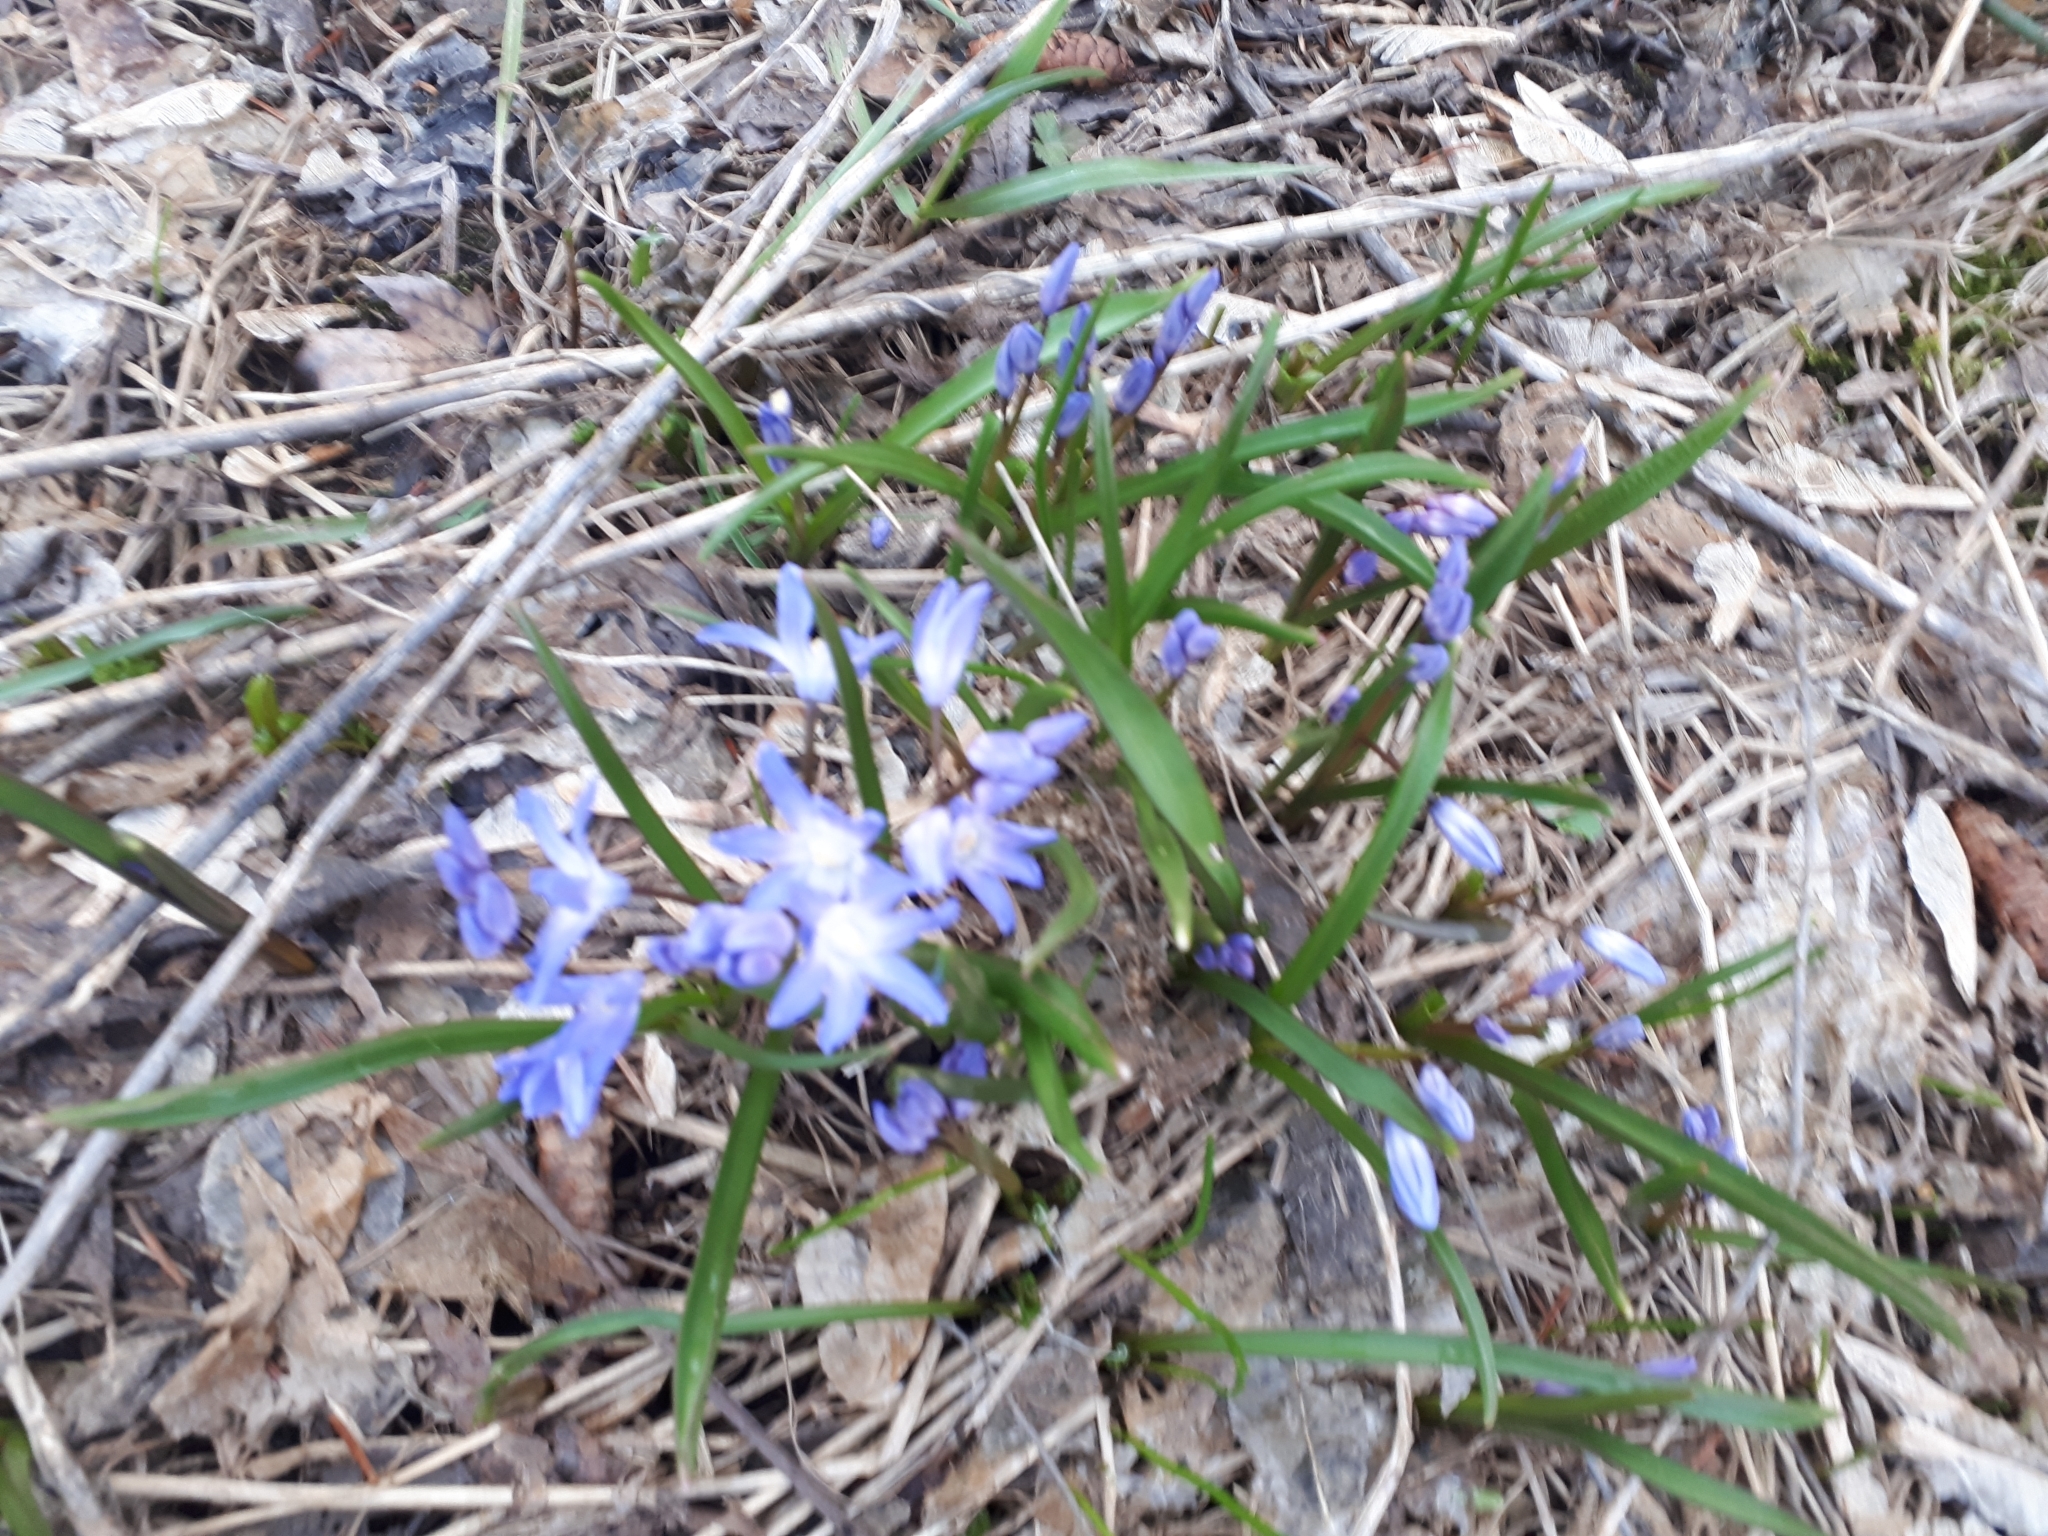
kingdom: Plantae
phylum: Tracheophyta
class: Liliopsida
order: Asparagales
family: Asparagaceae
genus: Scilla
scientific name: Scilla forbesii
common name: Glory-of-the-snow
